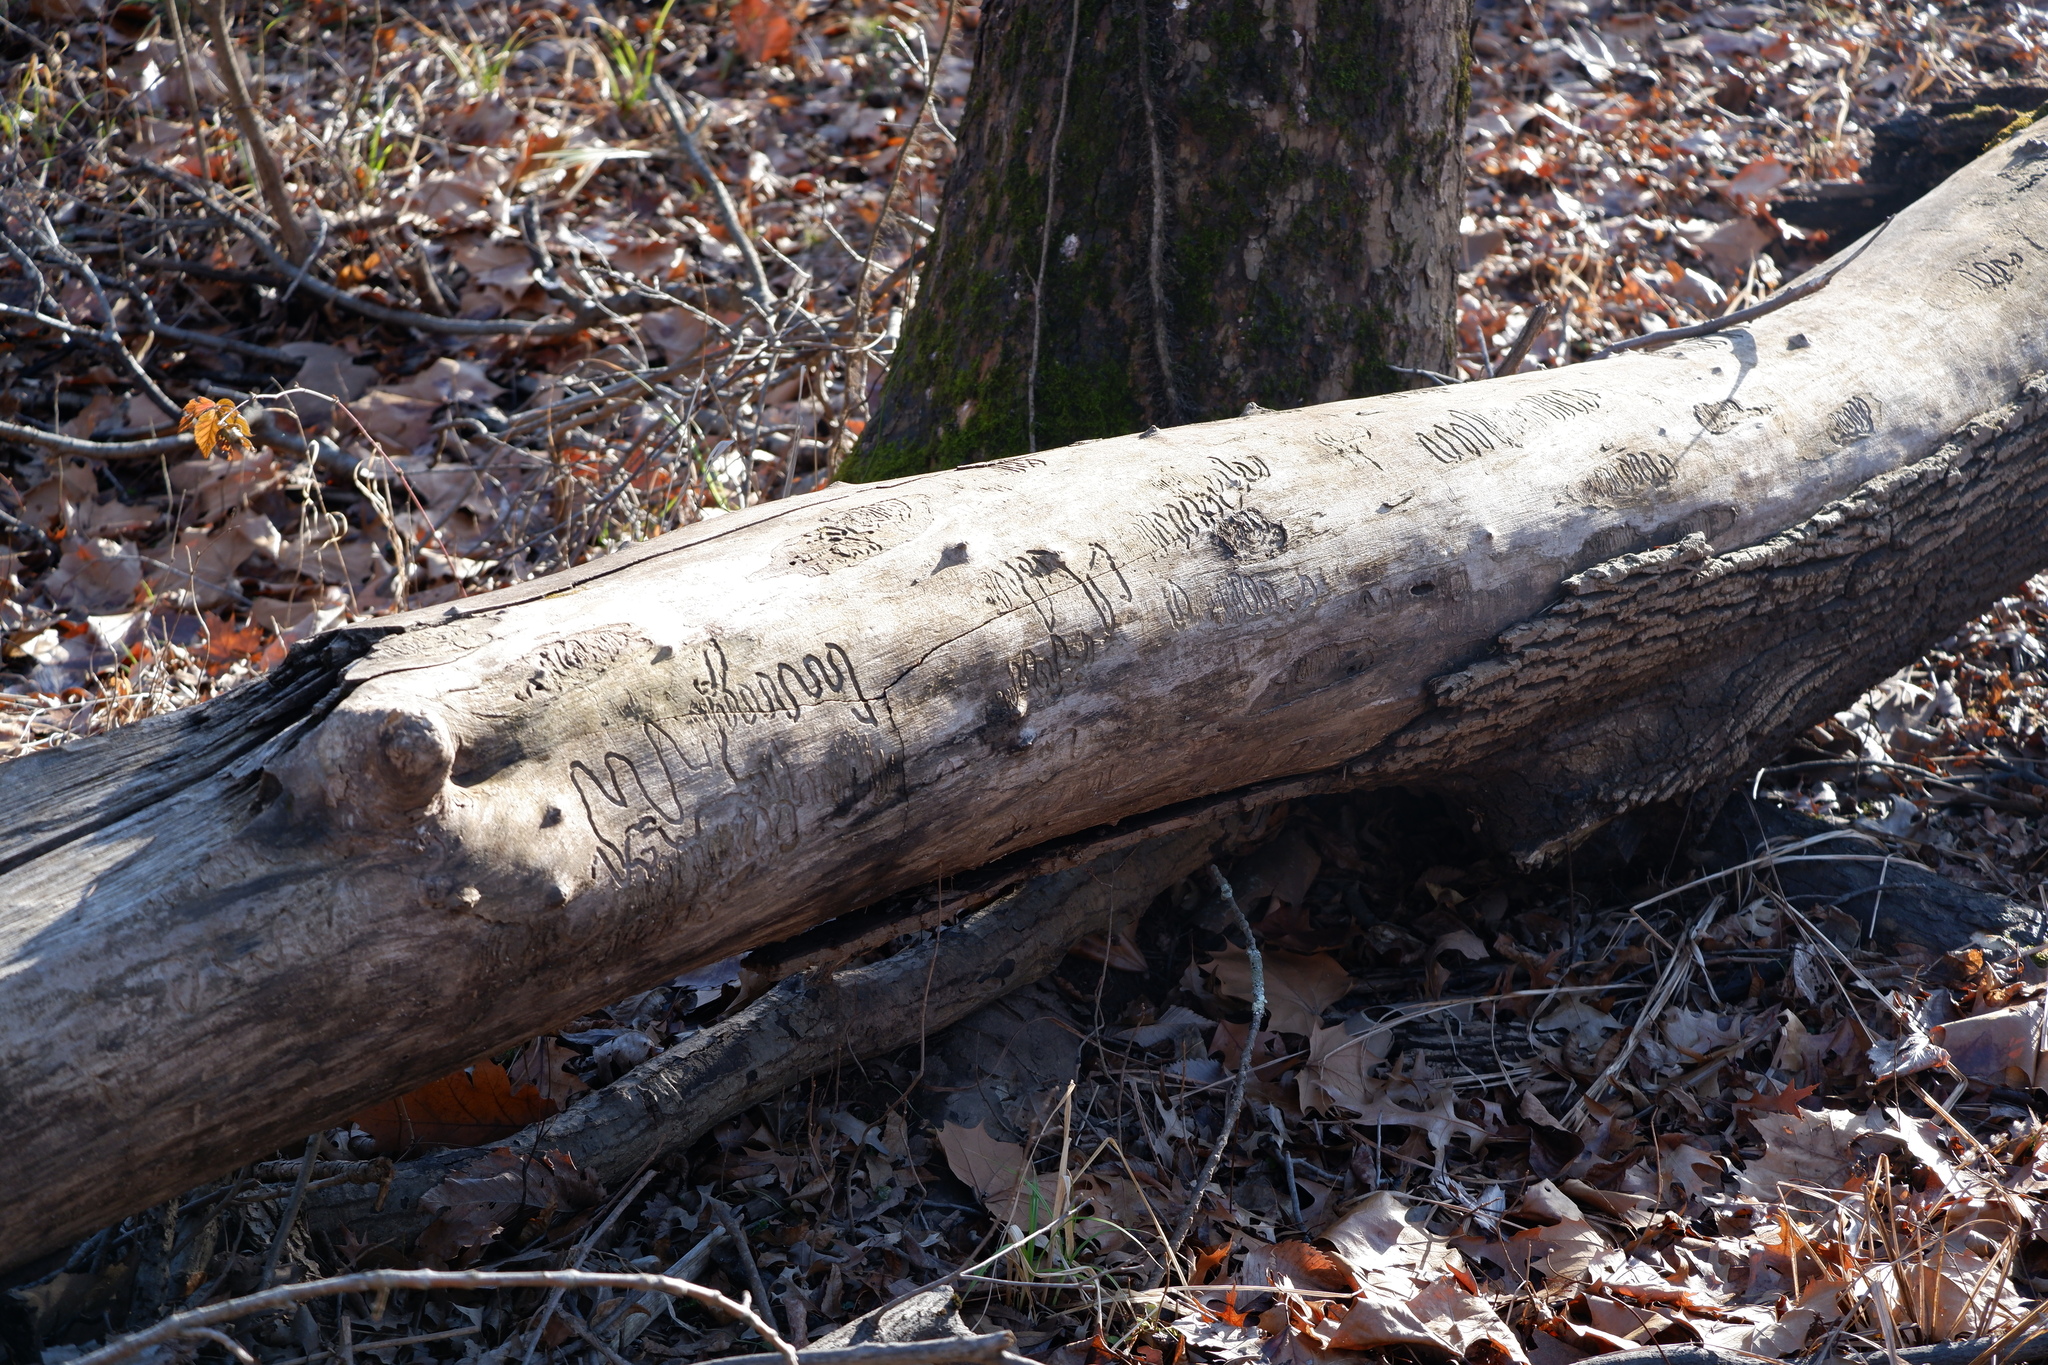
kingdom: Animalia
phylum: Arthropoda
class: Insecta
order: Coleoptera
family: Buprestidae
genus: Agrilus
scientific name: Agrilus planipennis
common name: Emerald ash borer
